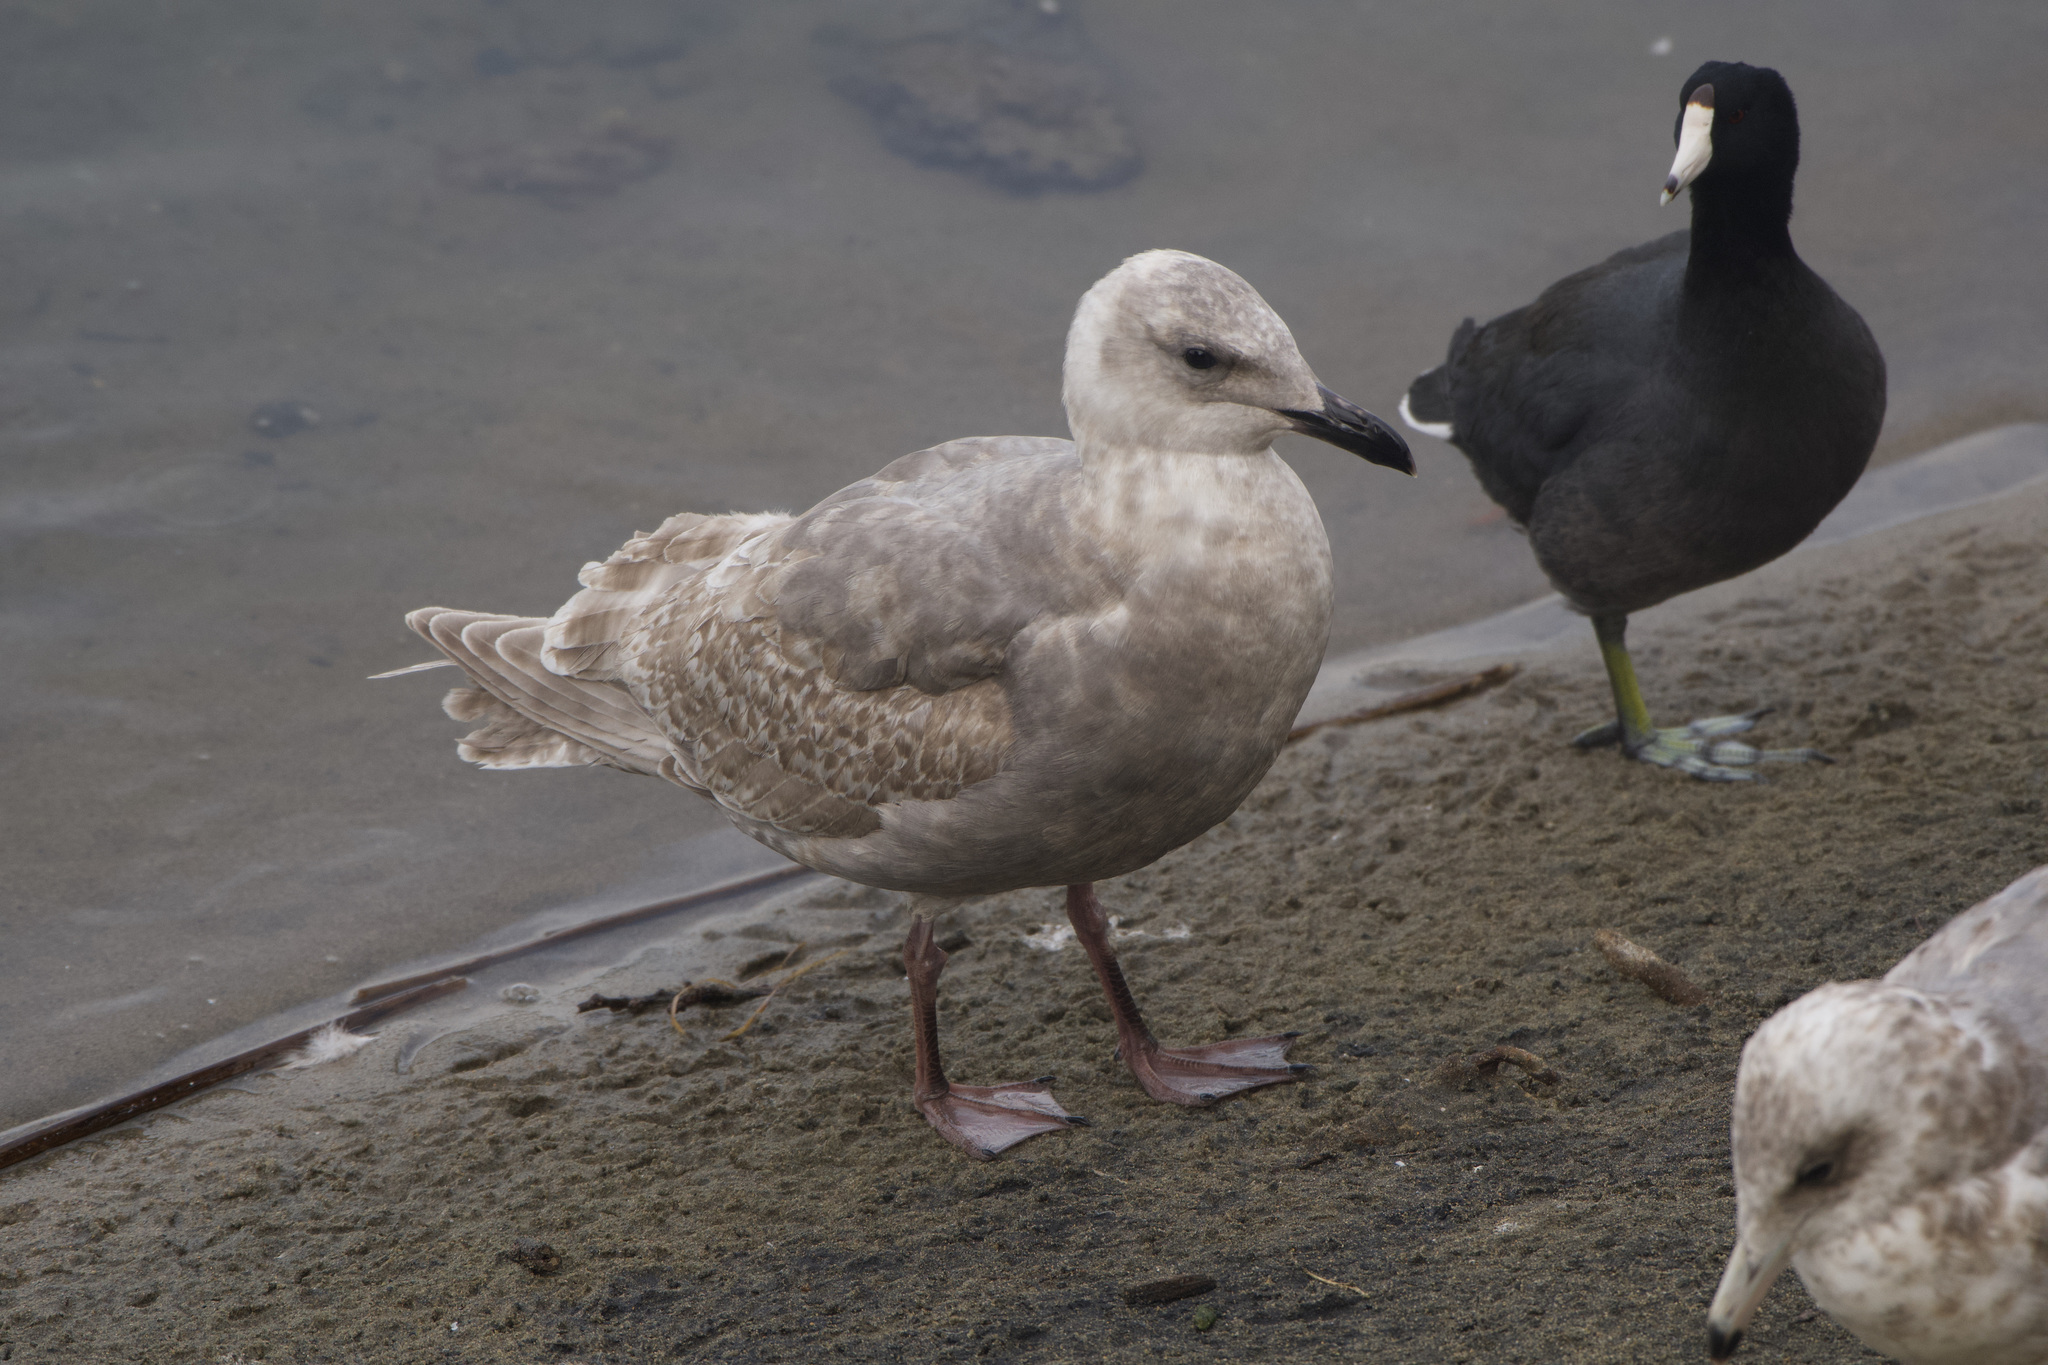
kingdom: Animalia
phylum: Chordata
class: Aves
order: Charadriiformes
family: Laridae
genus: Larus
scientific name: Larus glaucescens
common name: Glaucous-winged gull
